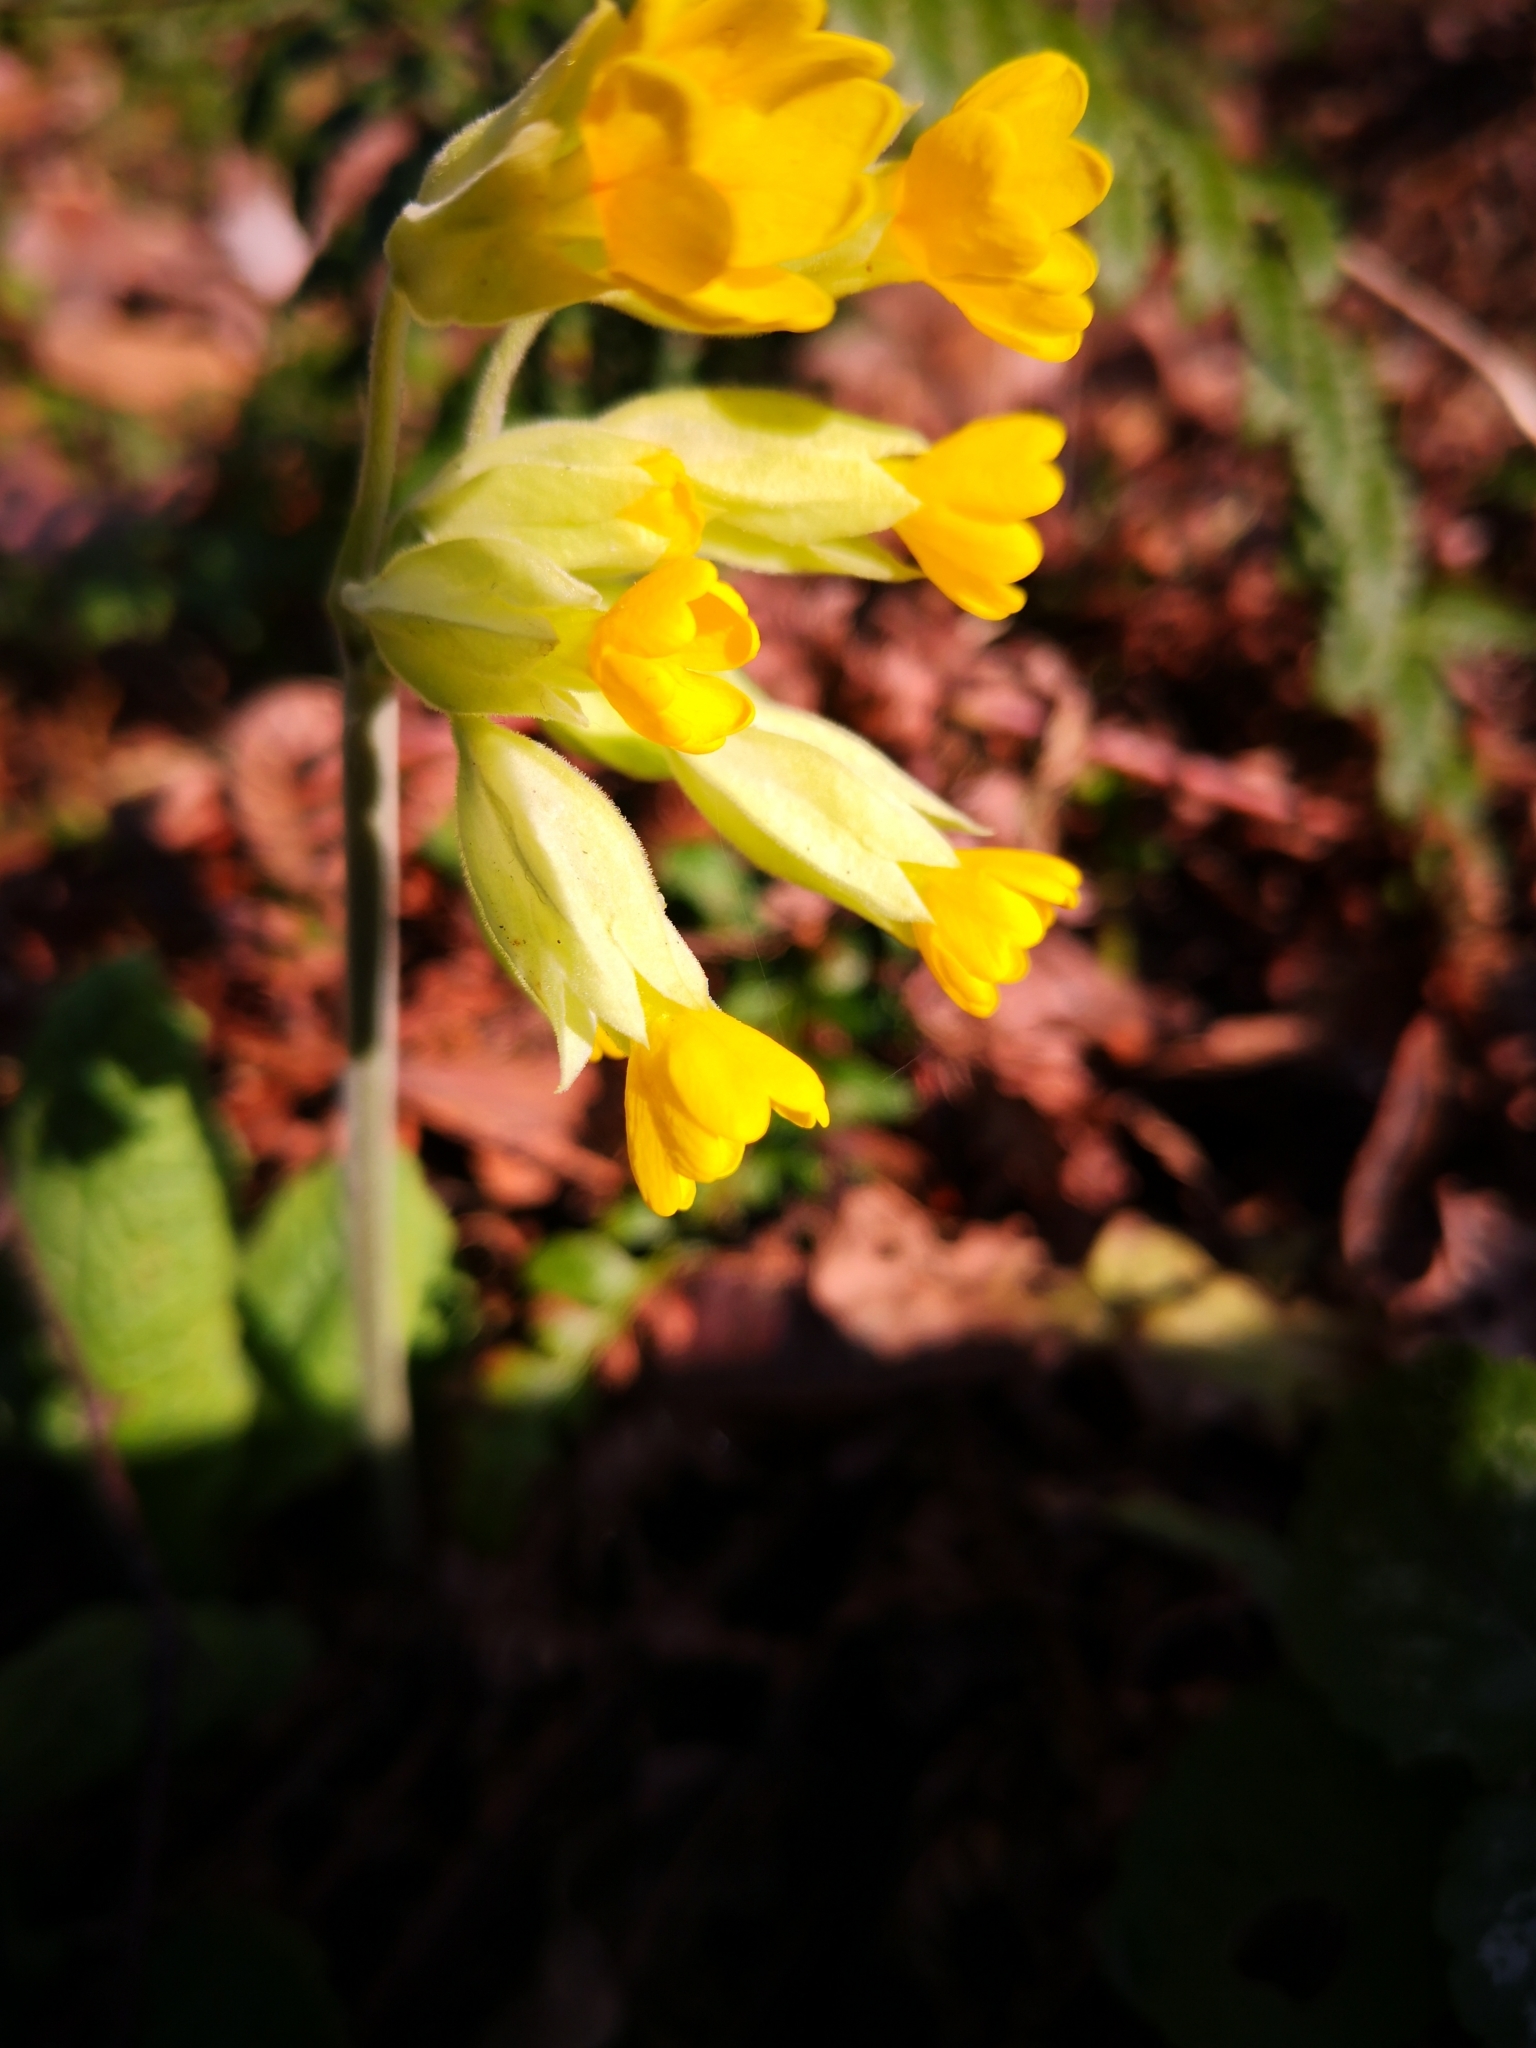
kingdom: Plantae
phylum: Tracheophyta
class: Magnoliopsida
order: Ericales
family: Primulaceae
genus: Primula
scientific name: Primula veris
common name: Cowslip
